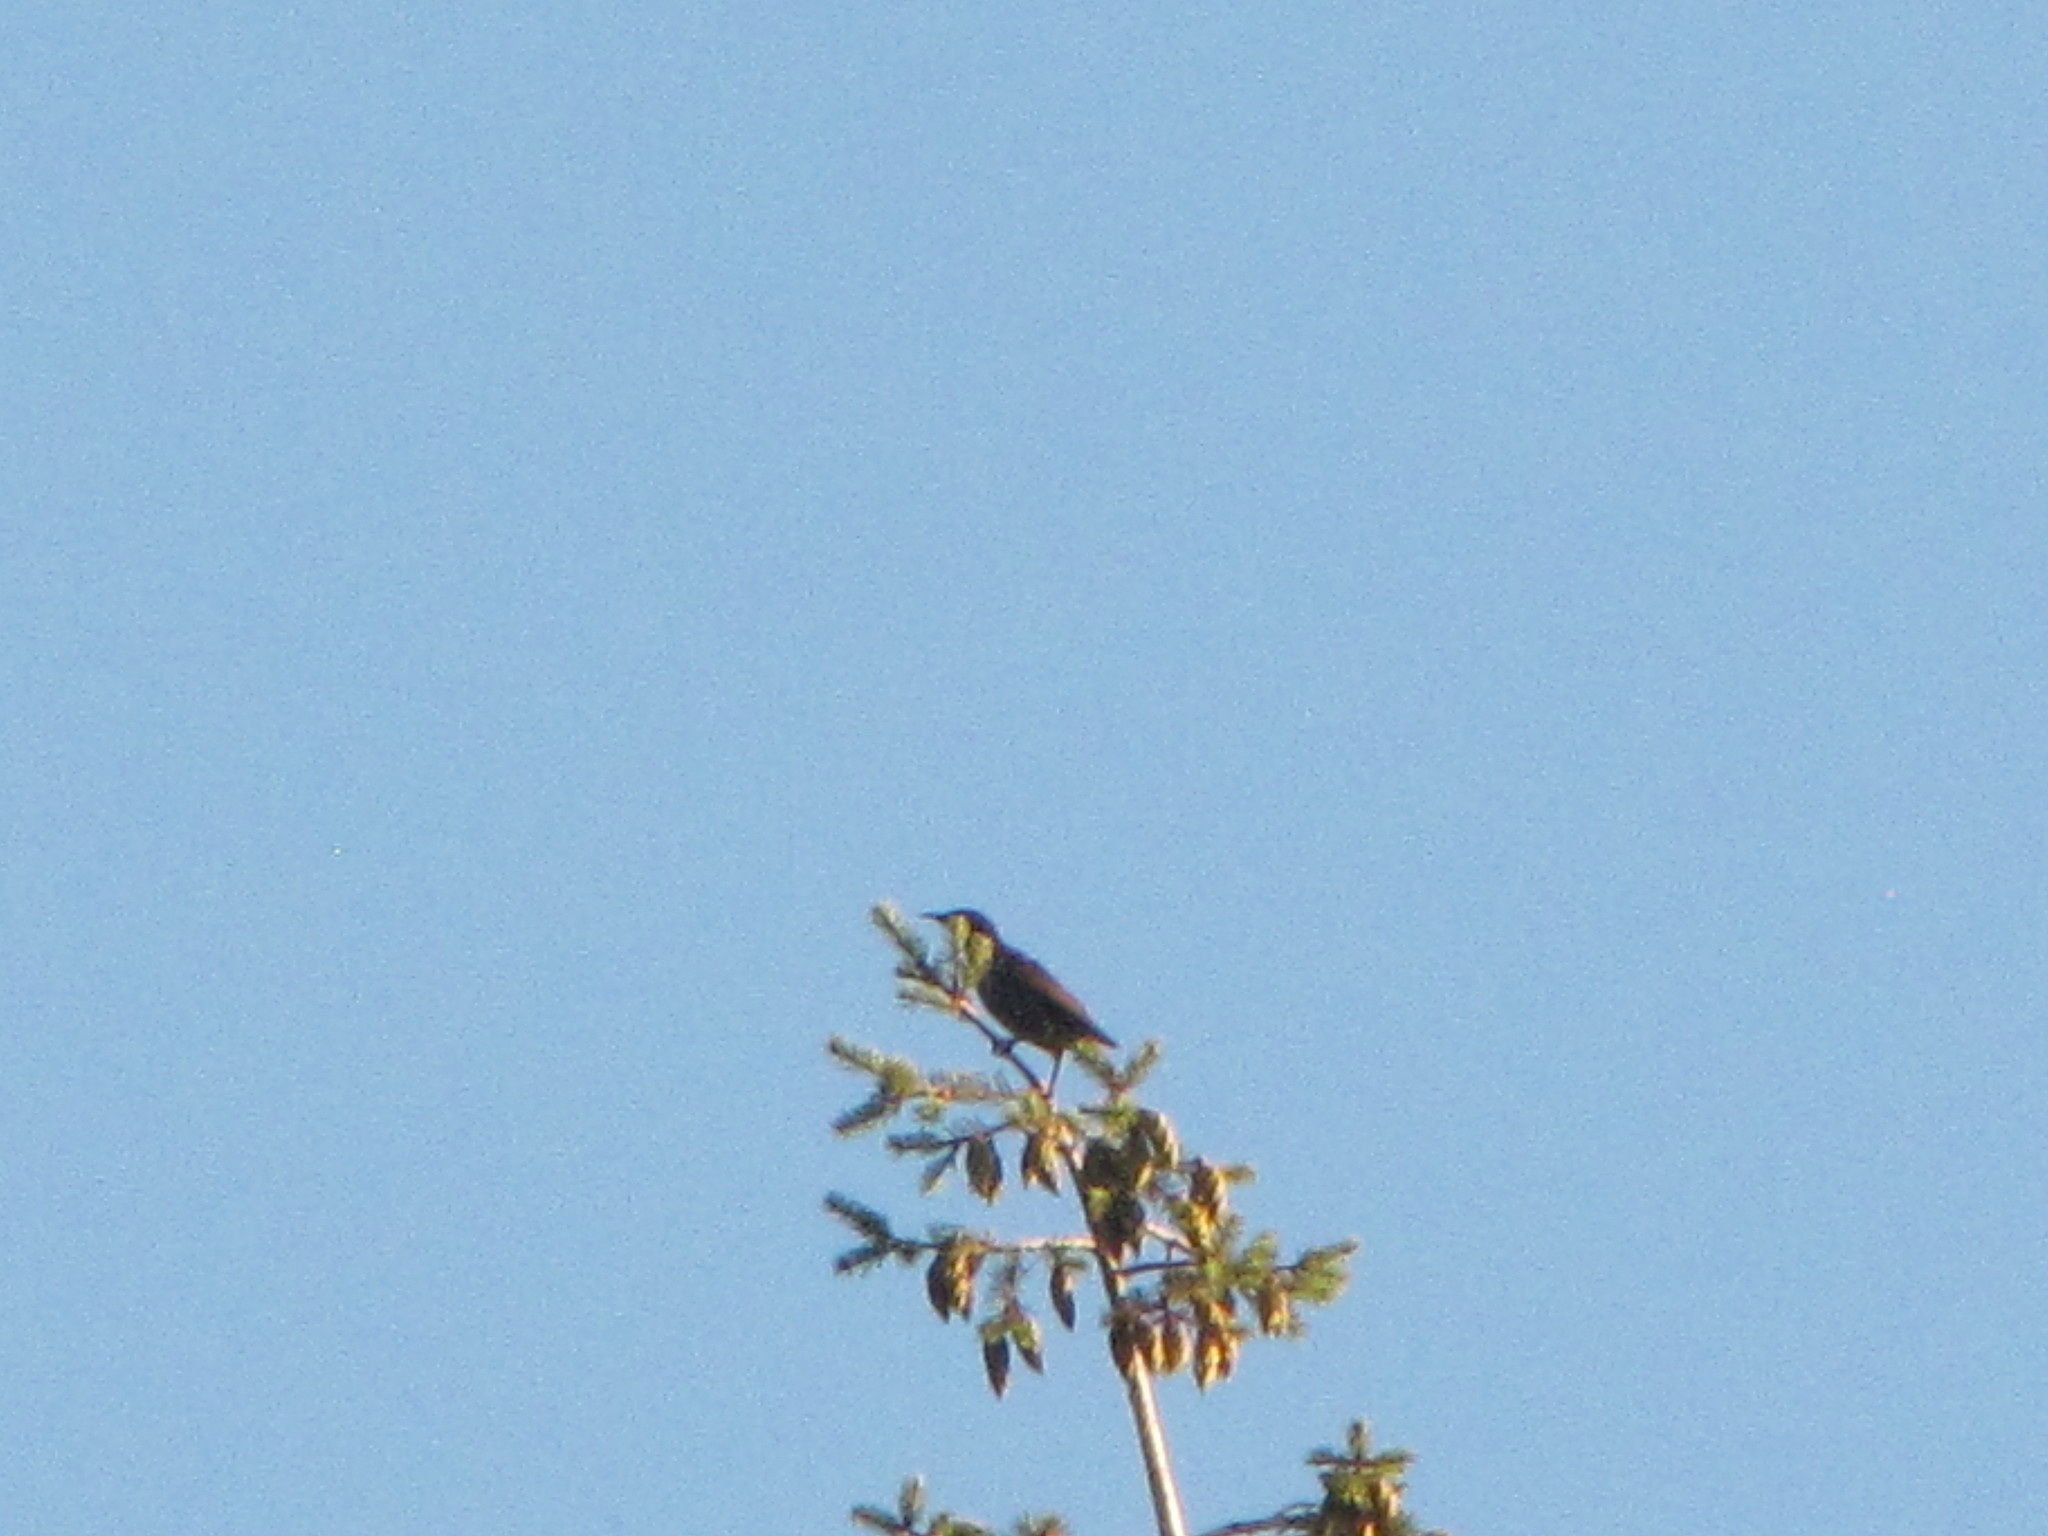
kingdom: Animalia
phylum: Chordata
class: Aves
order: Passeriformes
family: Sturnidae
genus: Sturnus
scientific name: Sturnus vulgaris
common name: Common starling
